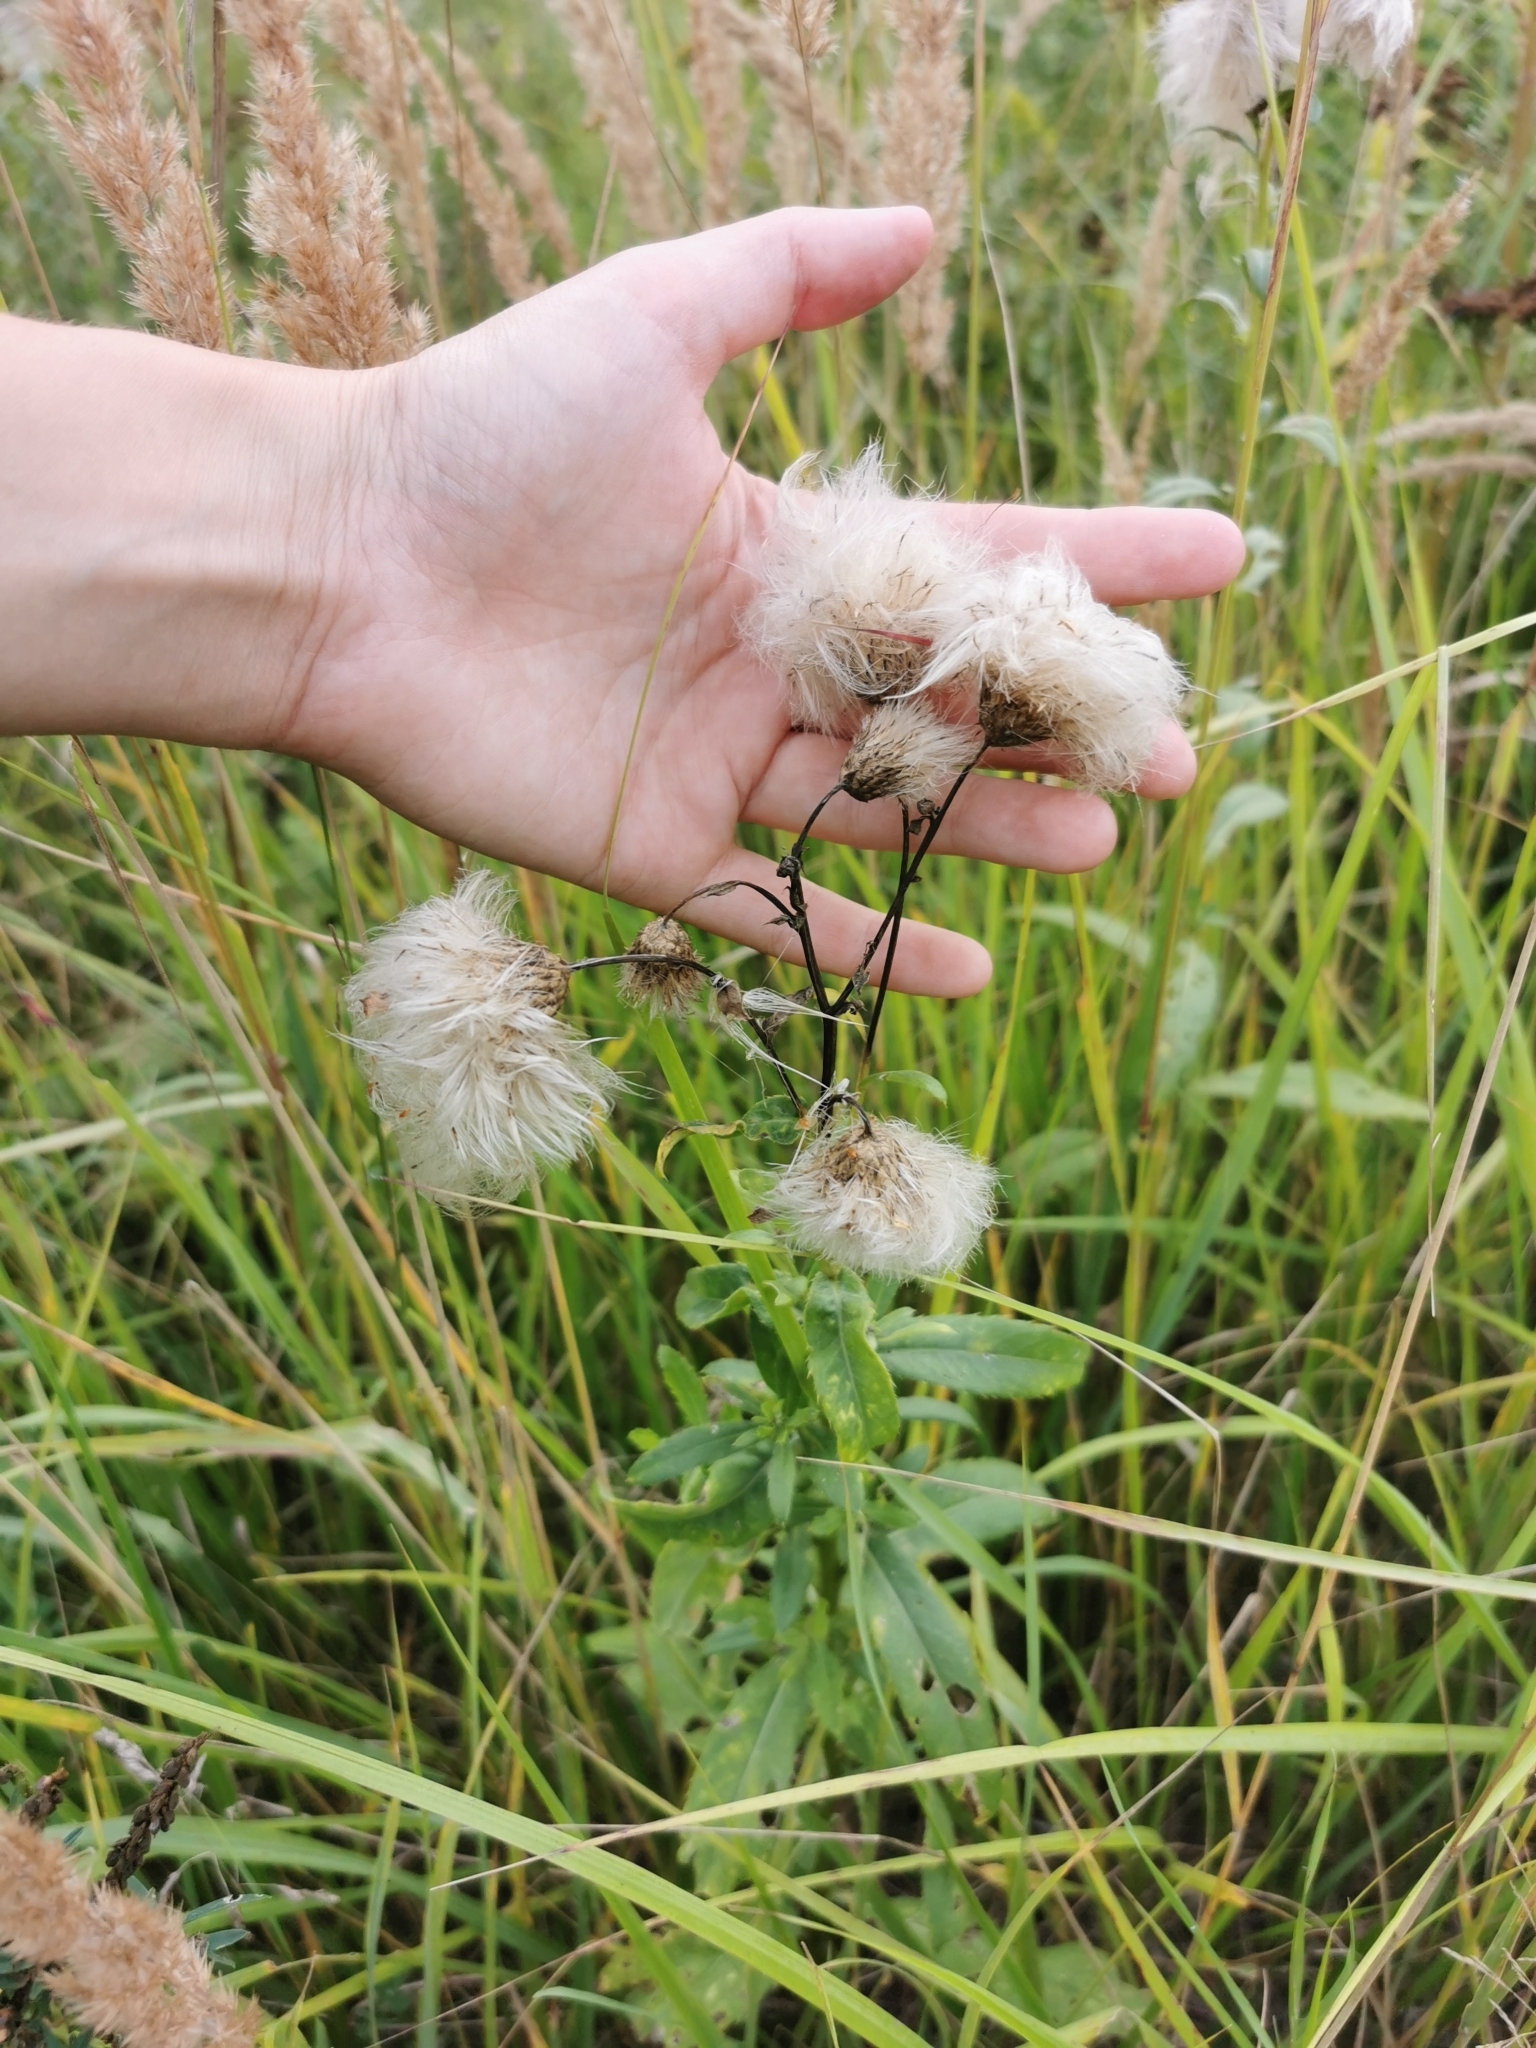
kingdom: Plantae
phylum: Tracheophyta
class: Magnoliopsida
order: Asterales
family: Asteraceae
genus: Cirsium
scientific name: Cirsium arvense
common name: Creeping thistle
